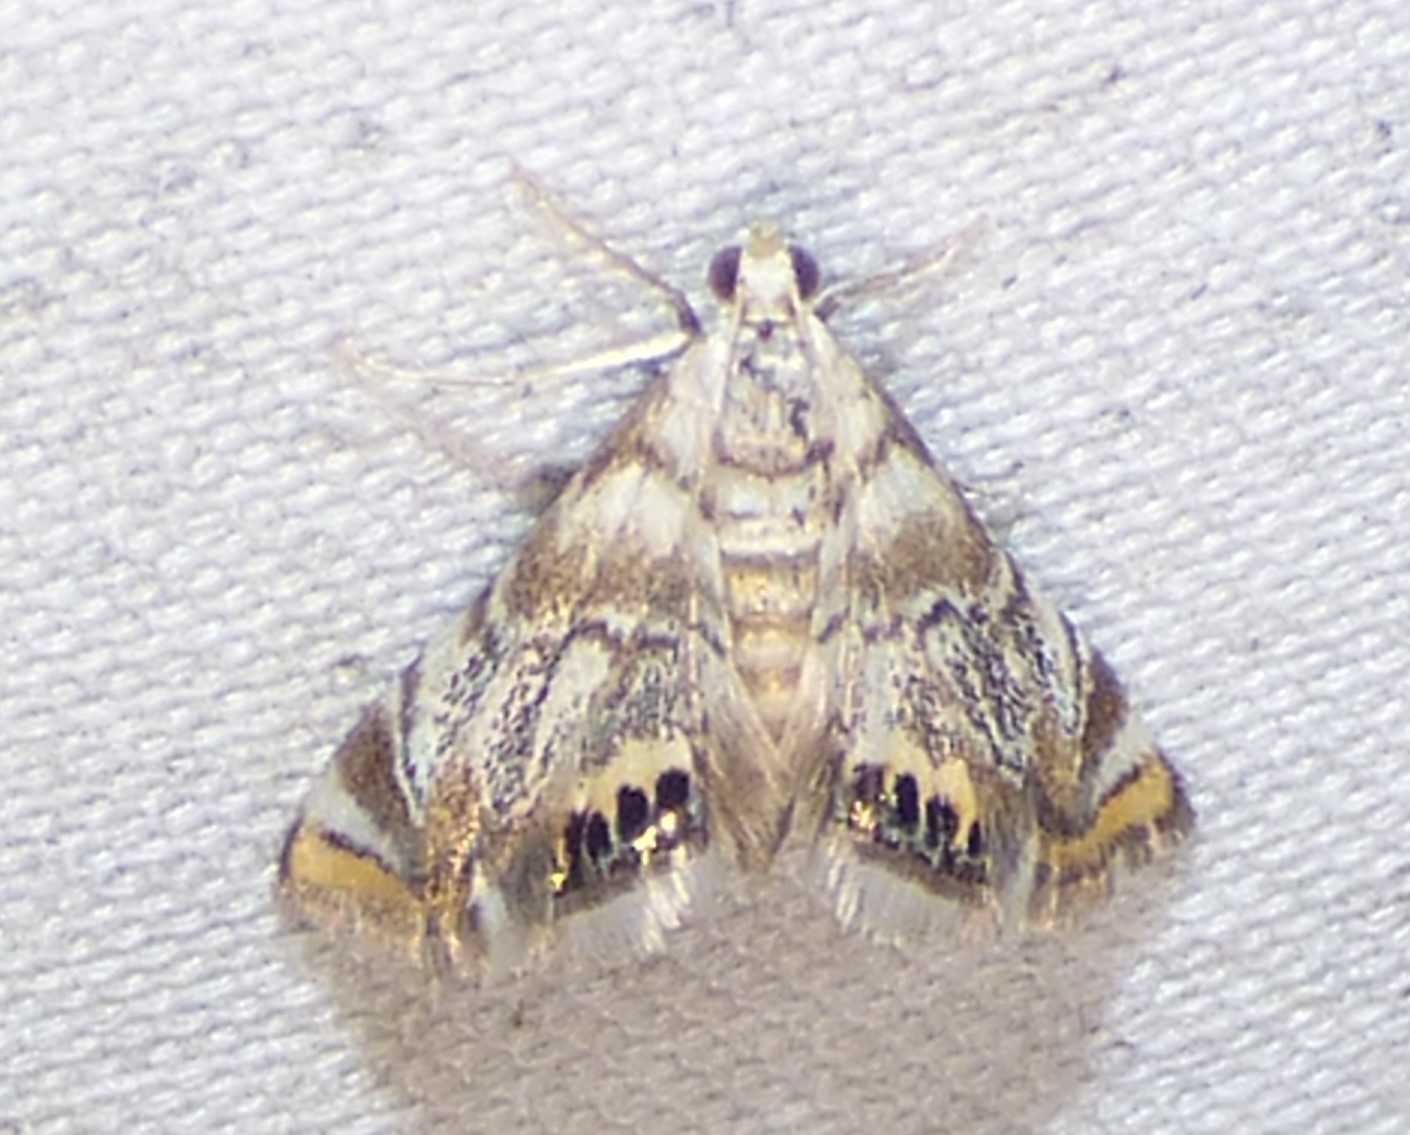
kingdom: Animalia
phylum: Arthropoda
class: Insecta
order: Lepidoptera
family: Crambidae
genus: Eoparargyractis
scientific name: Eoparargyractis irroratalis
